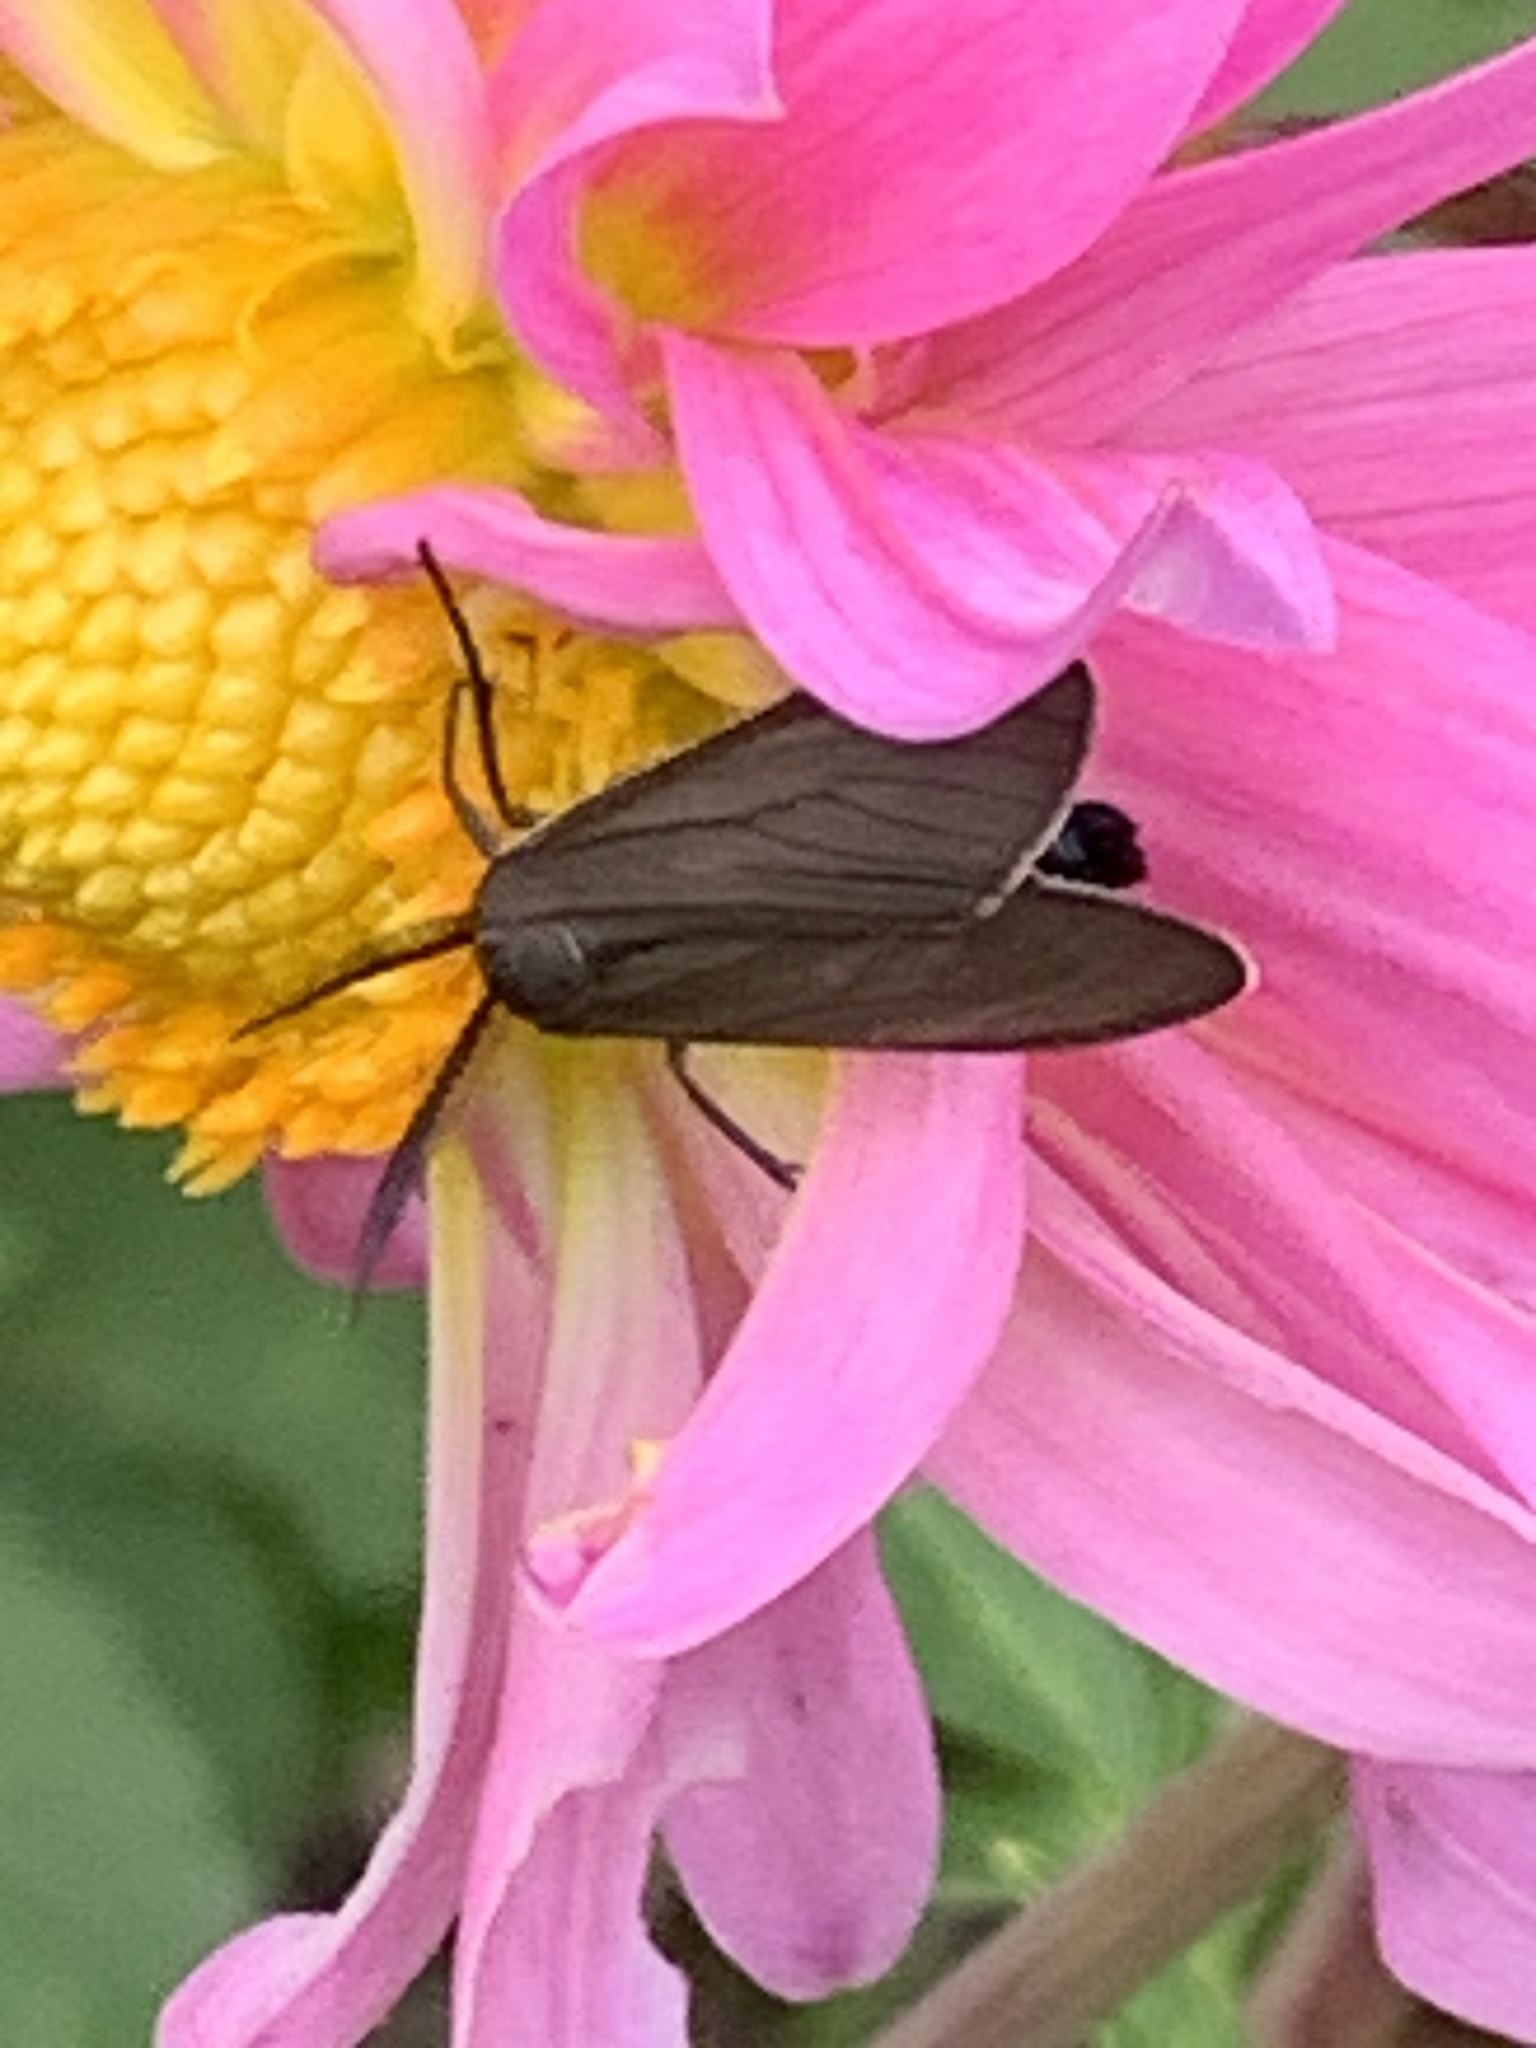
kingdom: Animalia
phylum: Arthropoda
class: Insecta
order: Lepidoptera
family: Erebidae
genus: Cisseps
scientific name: Cisseps fulvicollis
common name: Yellow-collared scape moth
